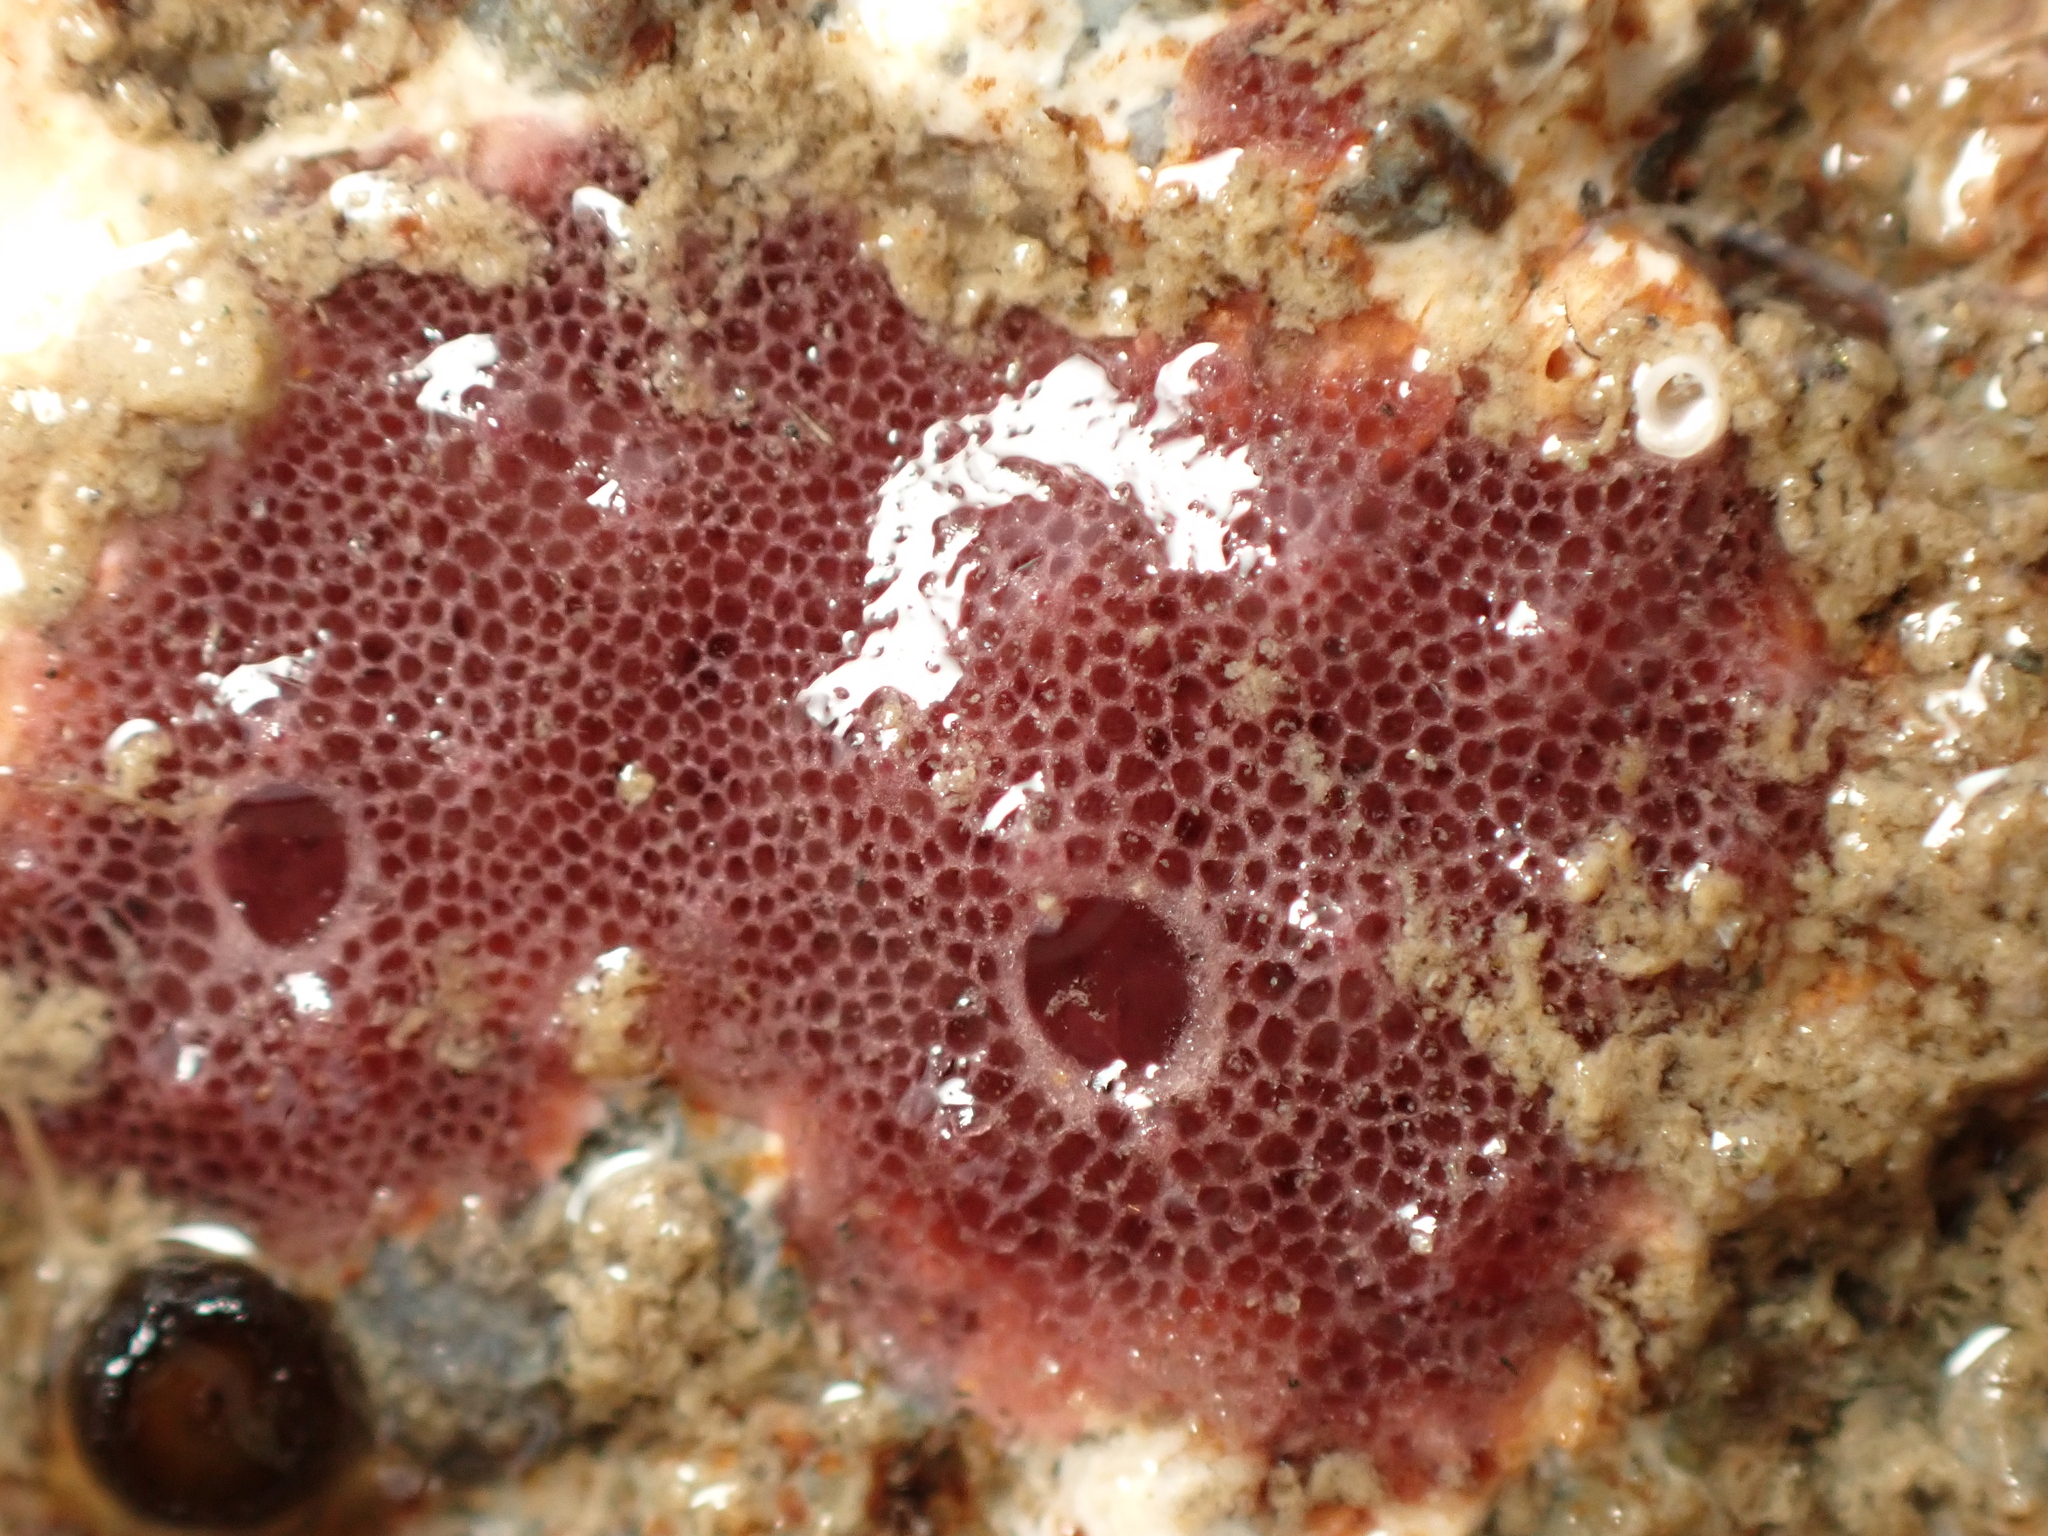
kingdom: Animalia
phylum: Porifera
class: Demospongiae
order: Dendroceratida
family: Darwinellidae
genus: Chelonaplysilla
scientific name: Chelonaplysilla violacea
